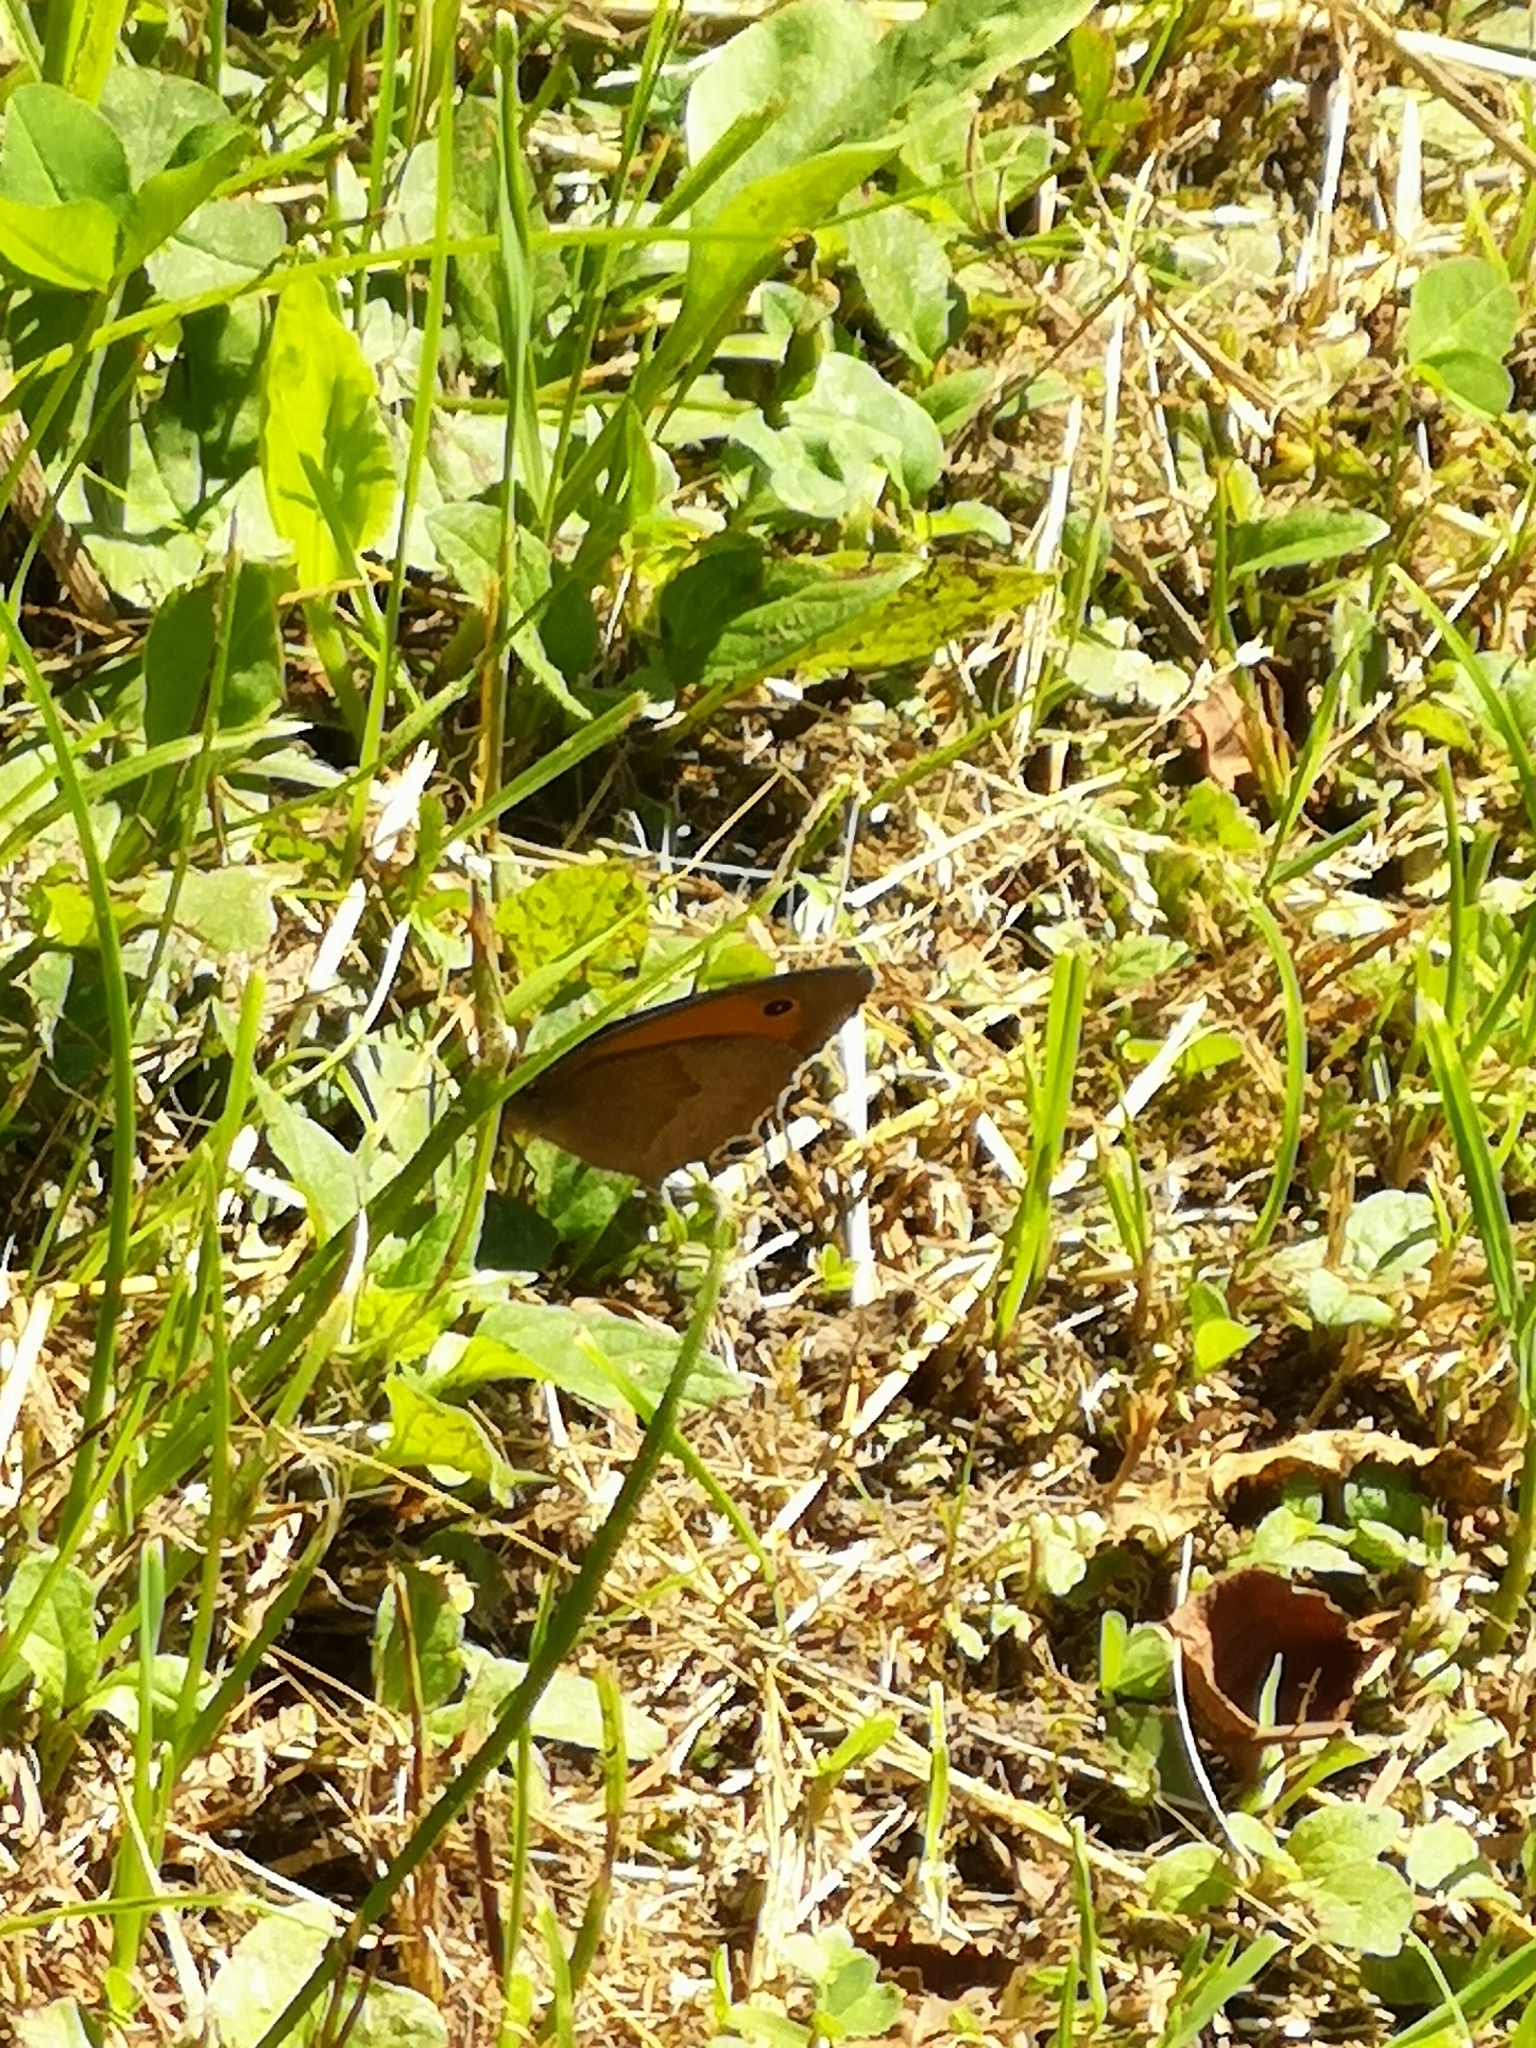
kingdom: Animalia
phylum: Arthropoda
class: Insecta
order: Lepidoptera
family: Nymphalidae
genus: Maniola
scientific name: Maniola jurtina
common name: Meadow brown
